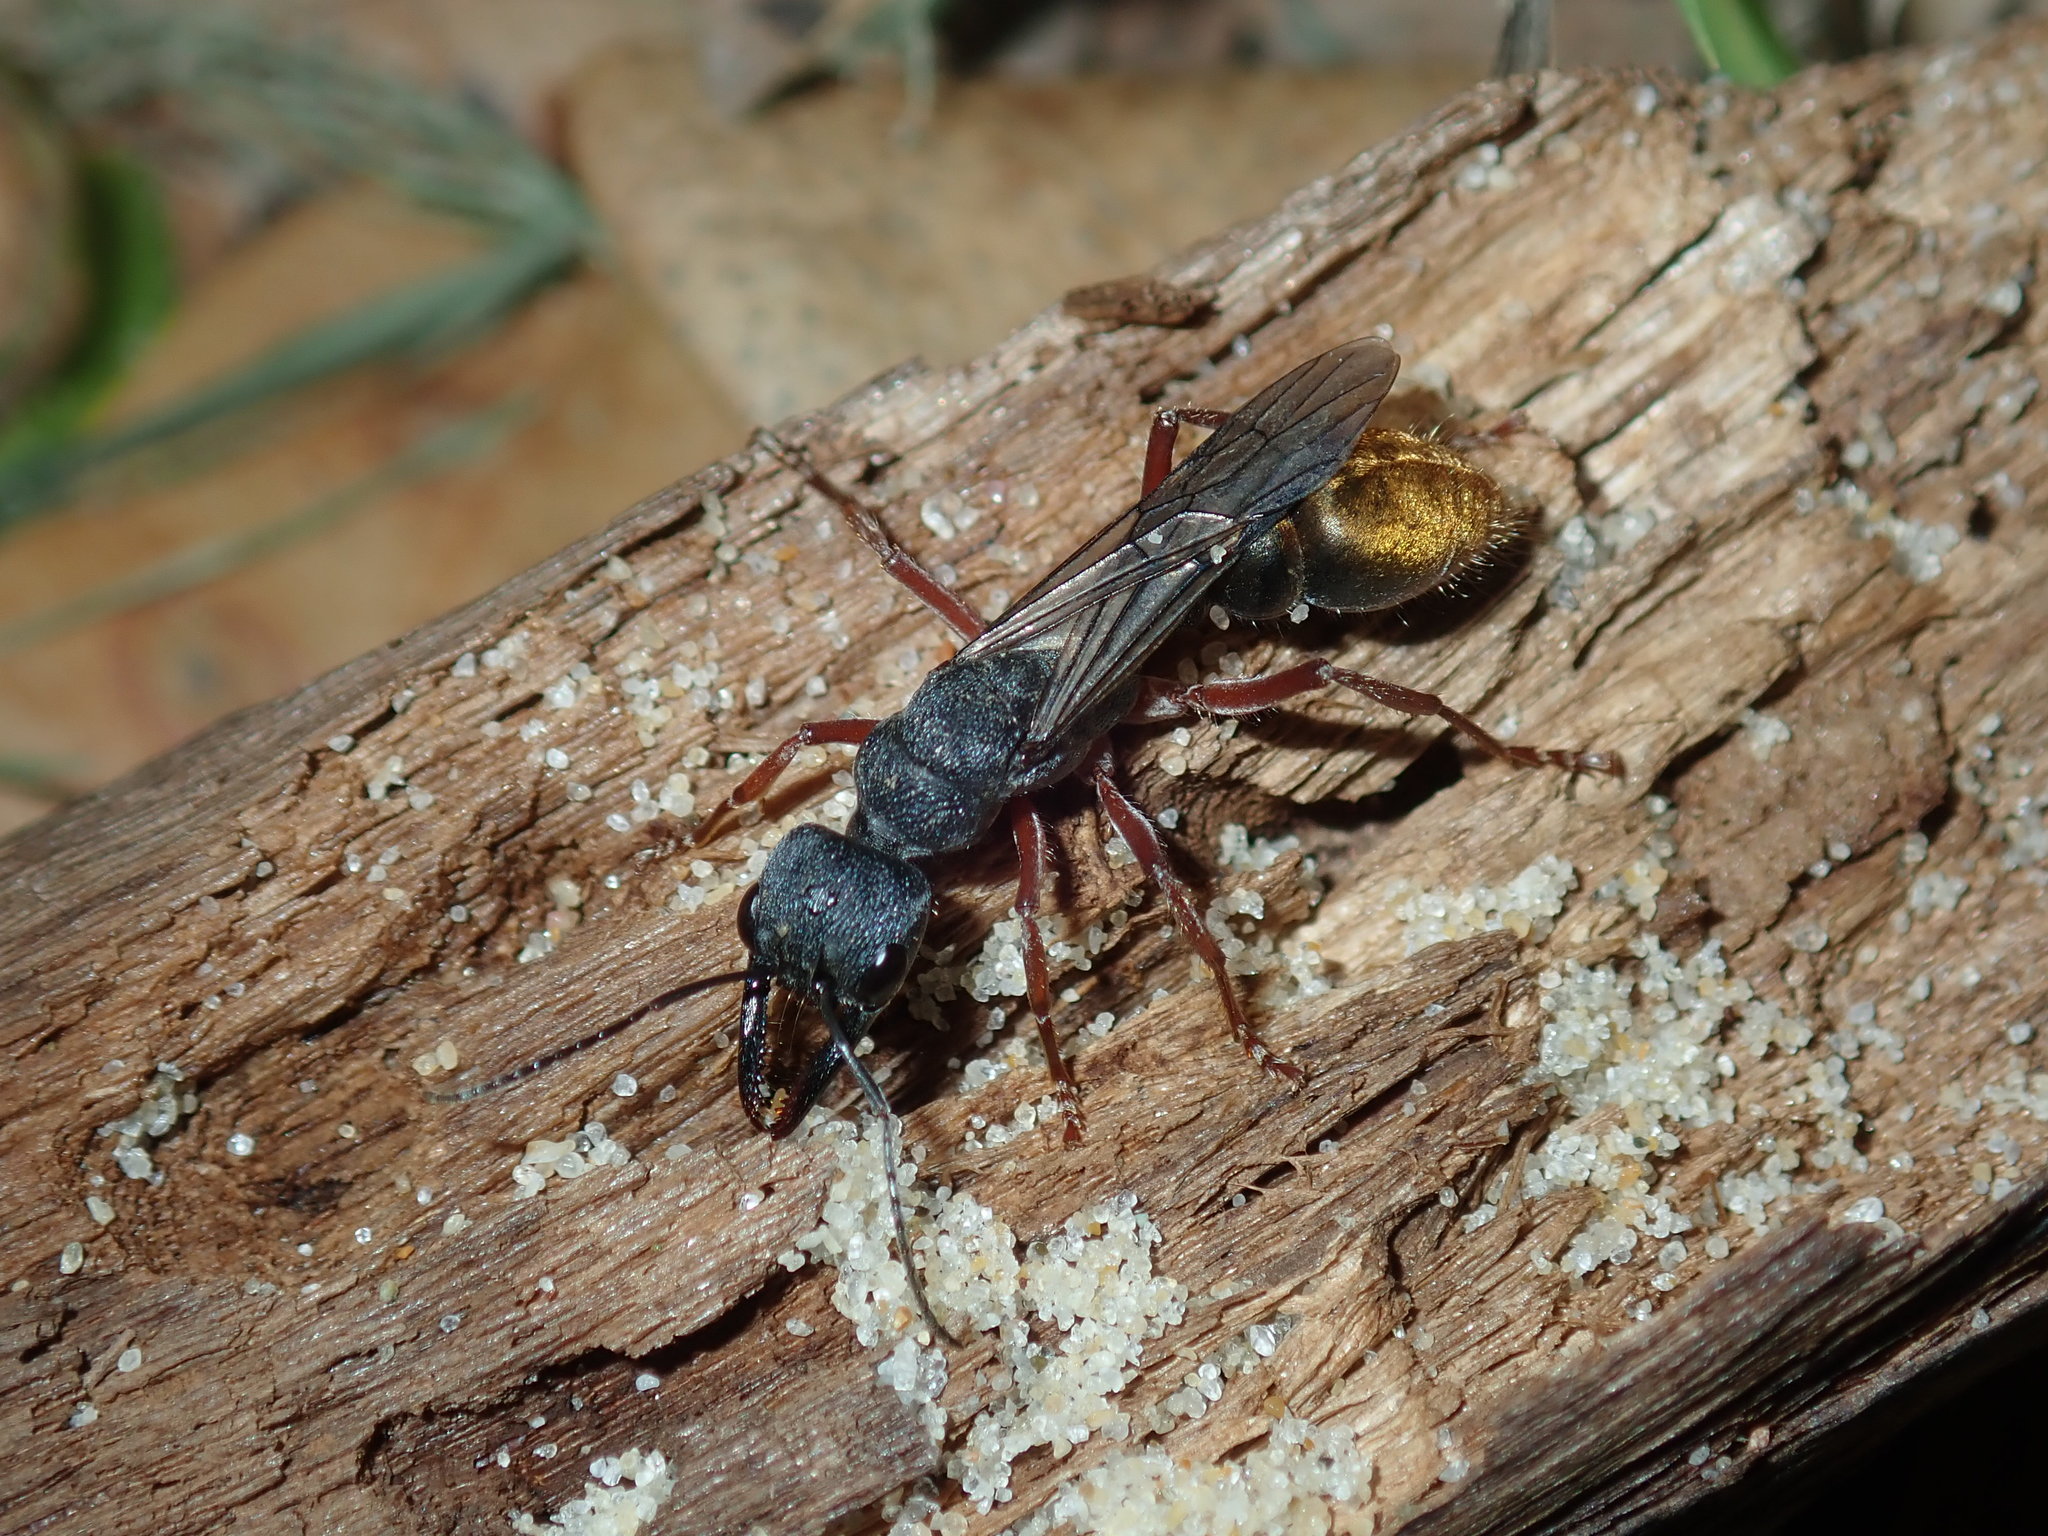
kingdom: Animalia
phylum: Arthropoda
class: Insecta
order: Hymenoptera
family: Formicidae
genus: Myrmecia
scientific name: Myrmecia fulviculis
